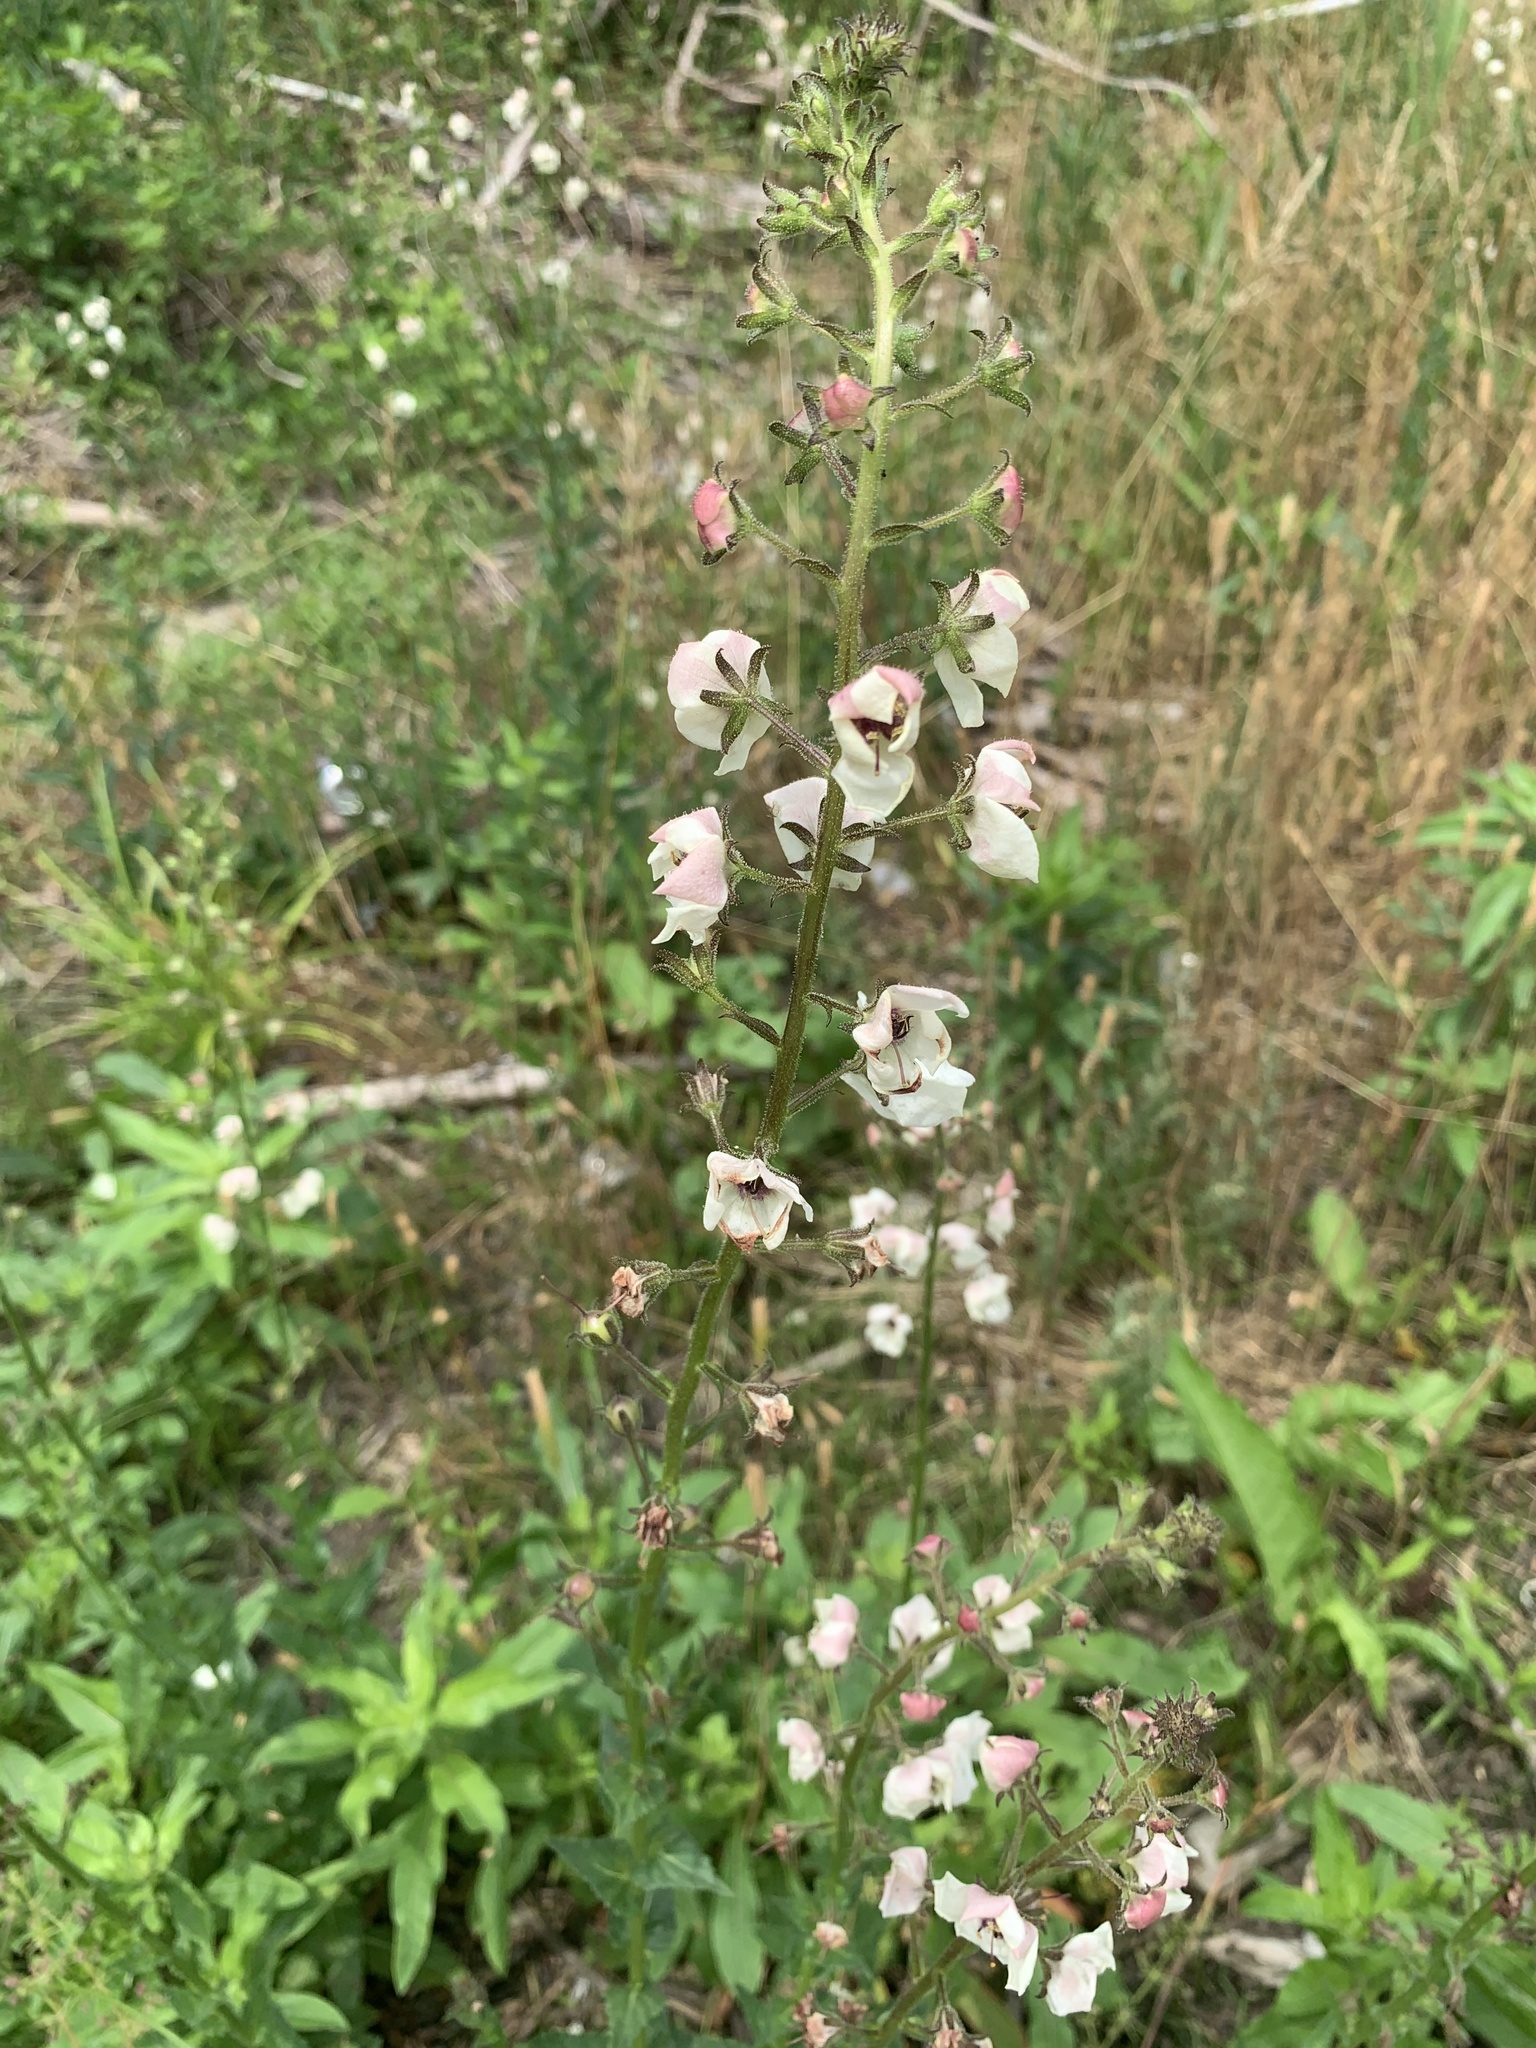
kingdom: Plantae
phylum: Tracheophyta
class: Magnoliopsida
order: Lamiales
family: Scrophulariaceae
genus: Verbascum
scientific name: Verbascum blattaria
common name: Moth mullein
